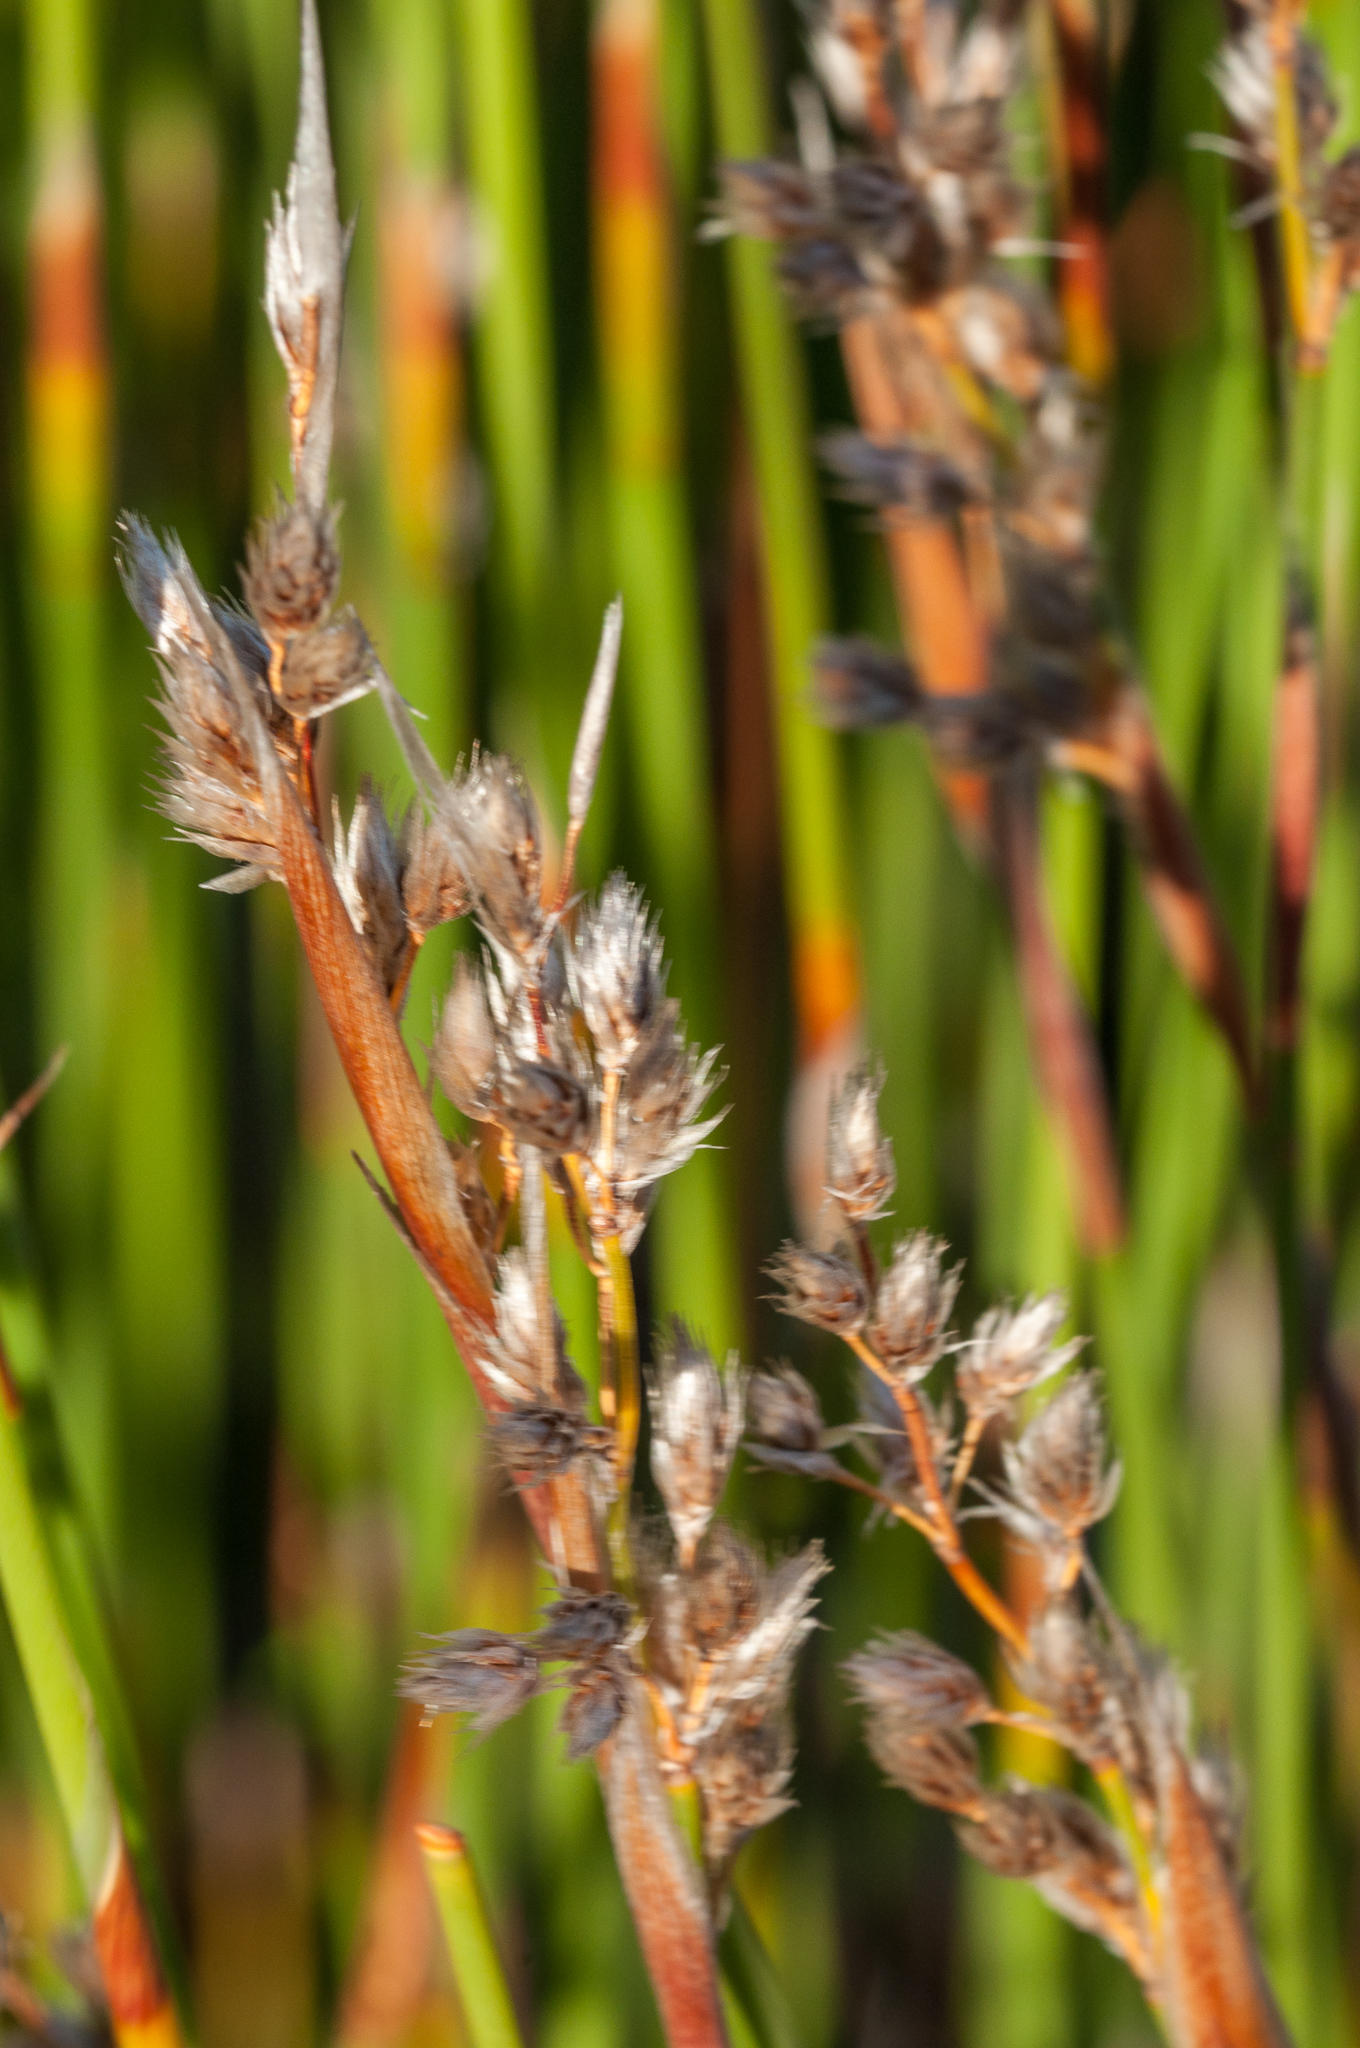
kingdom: Plantae
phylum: Tracheophyta
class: Liliopsida
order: Poales
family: Restionaceae
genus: Hypodiscus
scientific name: Hypodiscus argenteus
